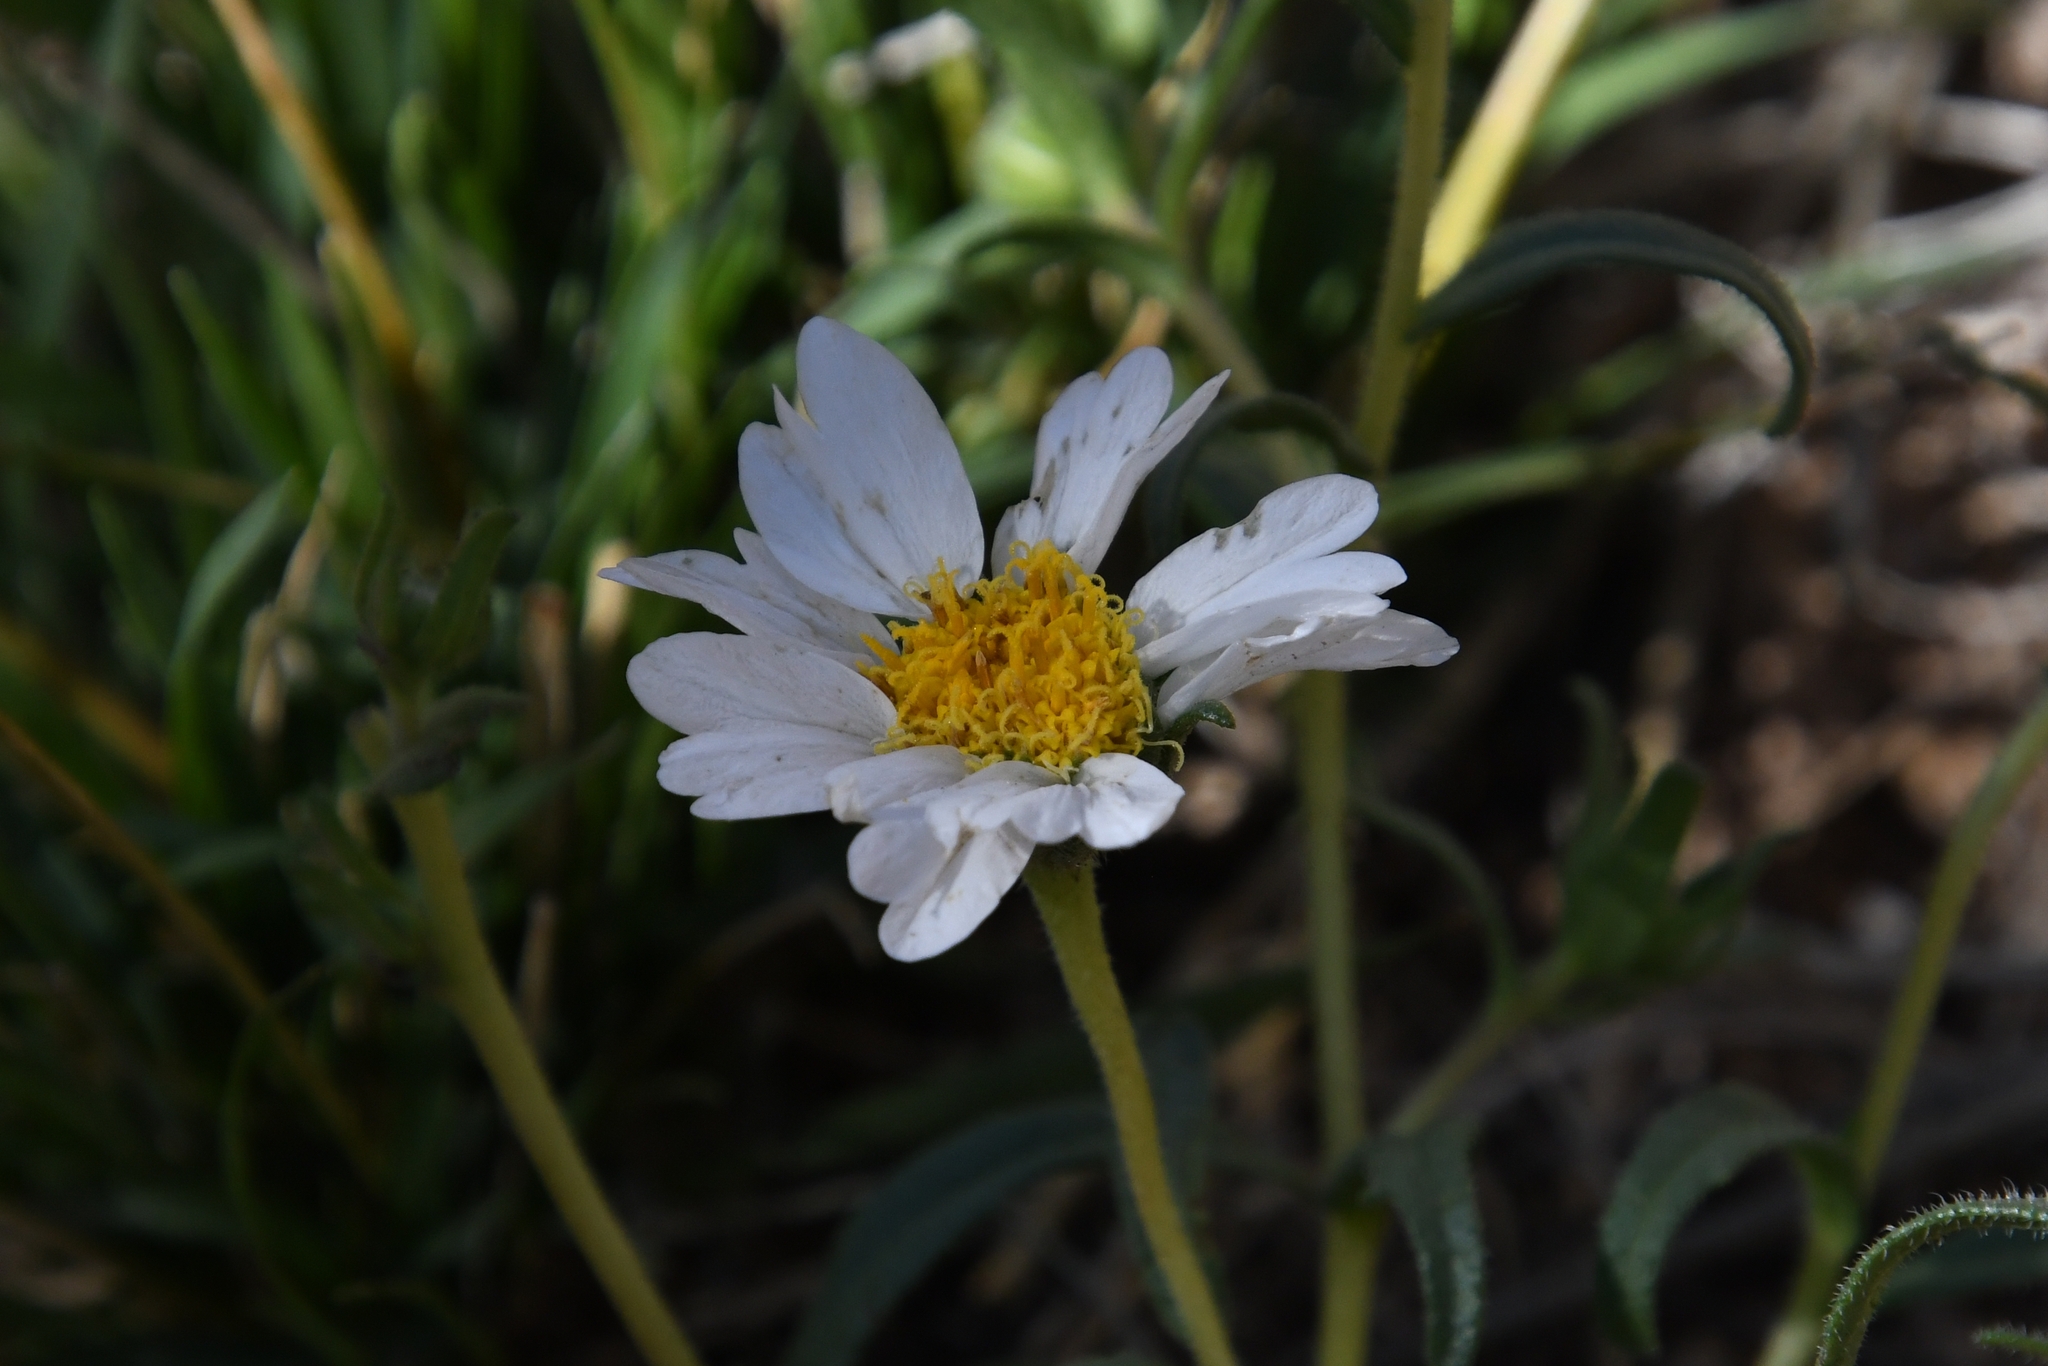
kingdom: Plantae
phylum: Tracheophyta
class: Magnoliopsida
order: Asterales
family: Asteraceae
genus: Layia
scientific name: Layia glandulosa
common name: White layia
